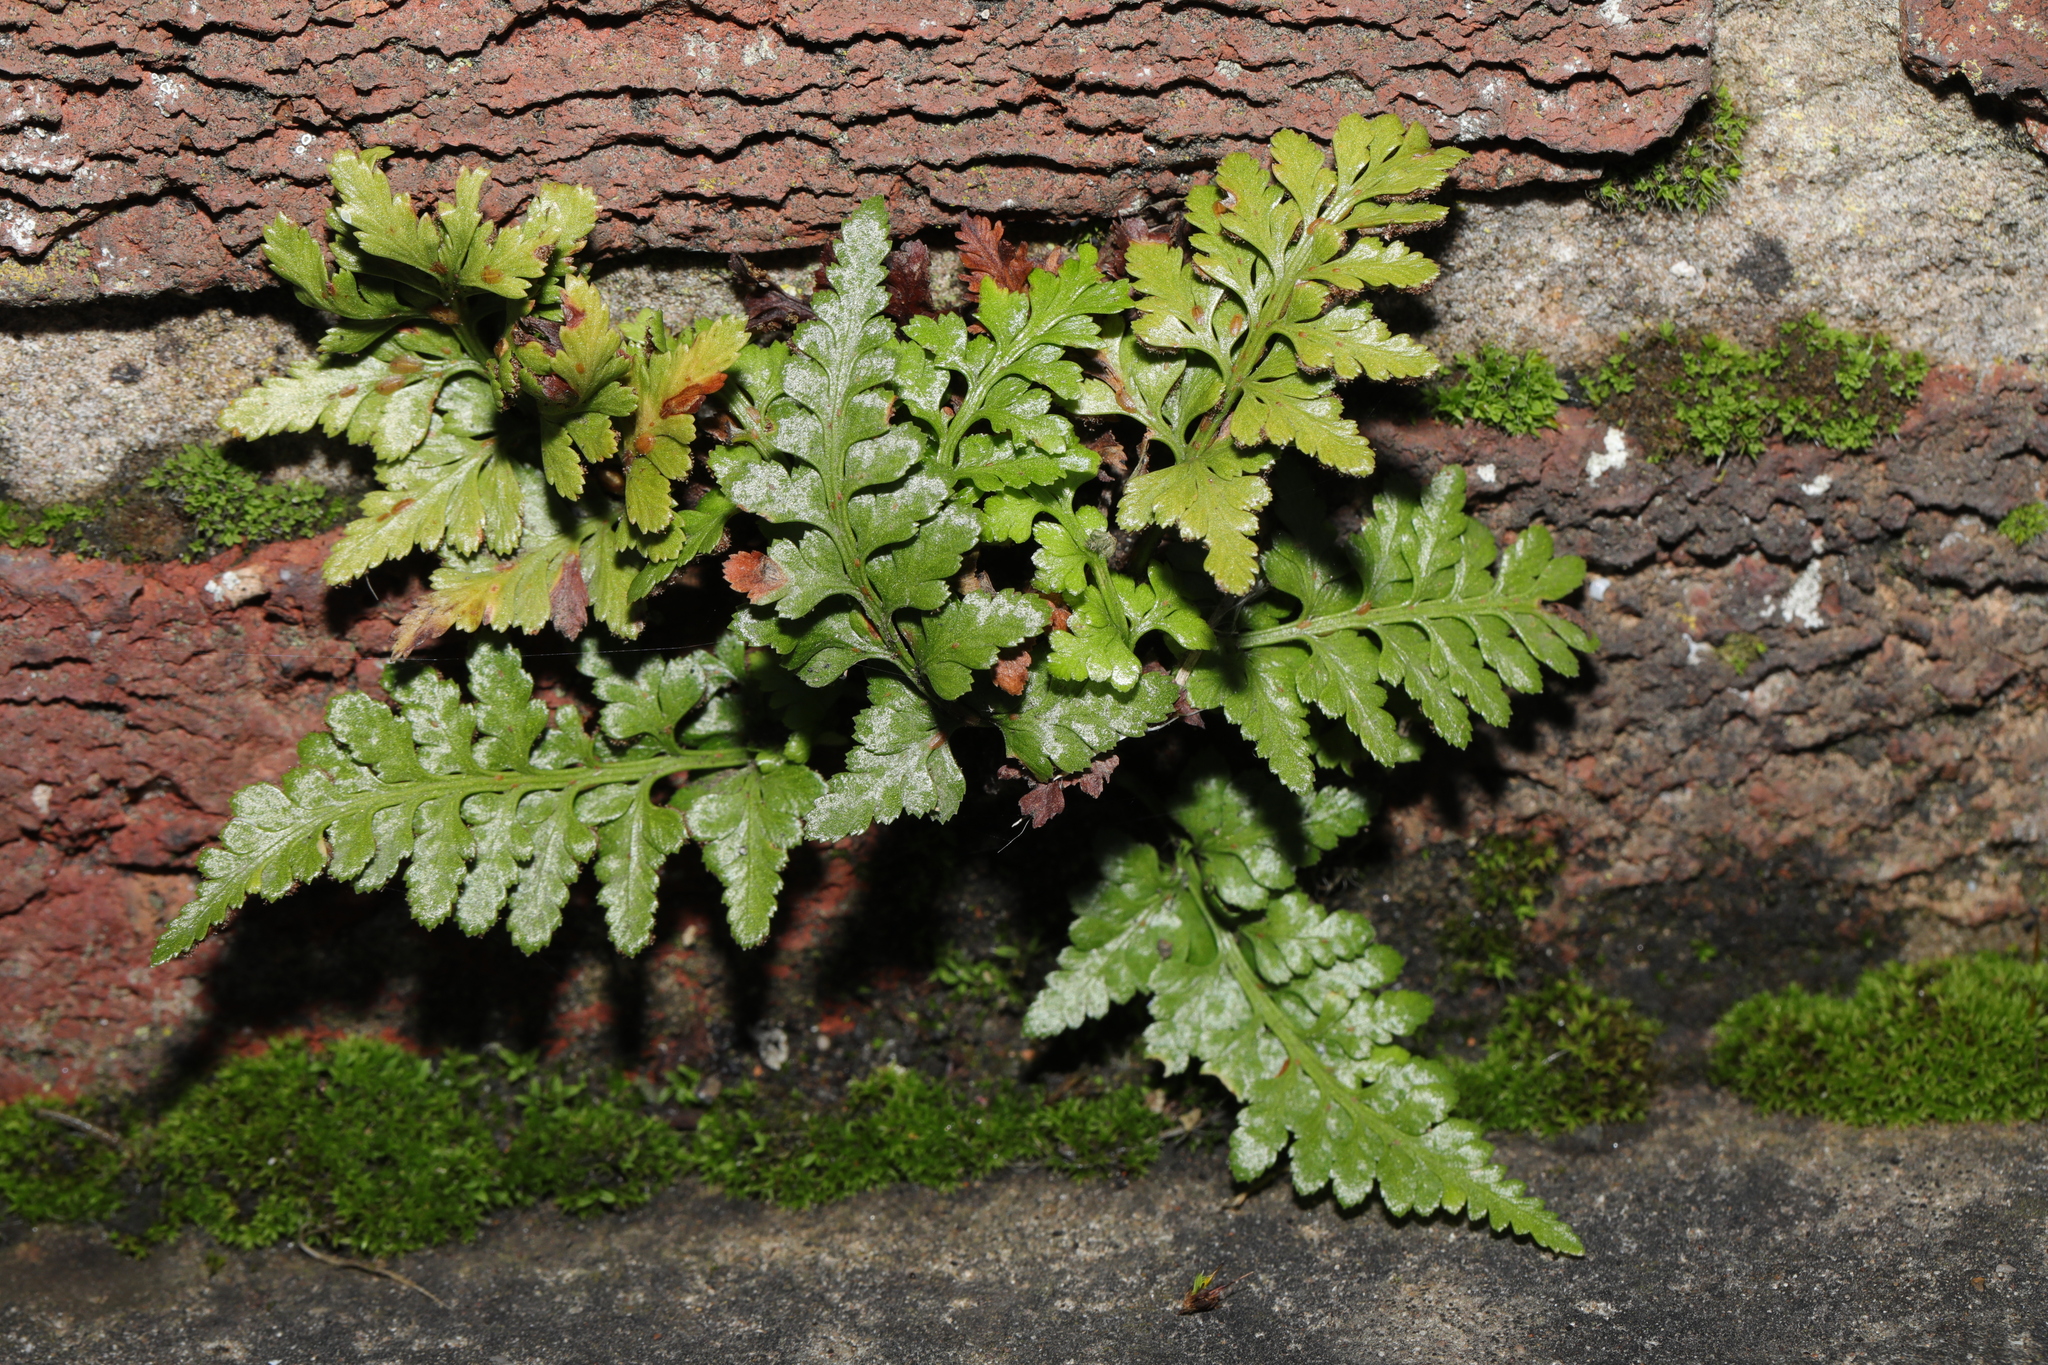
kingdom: Plantae
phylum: Tracheophyta
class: Polypodiopsida
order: Polypodiales
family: Aspleniaceae
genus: Asplenium
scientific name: Asplenium adiantum-nigrum
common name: Black spleenwort
